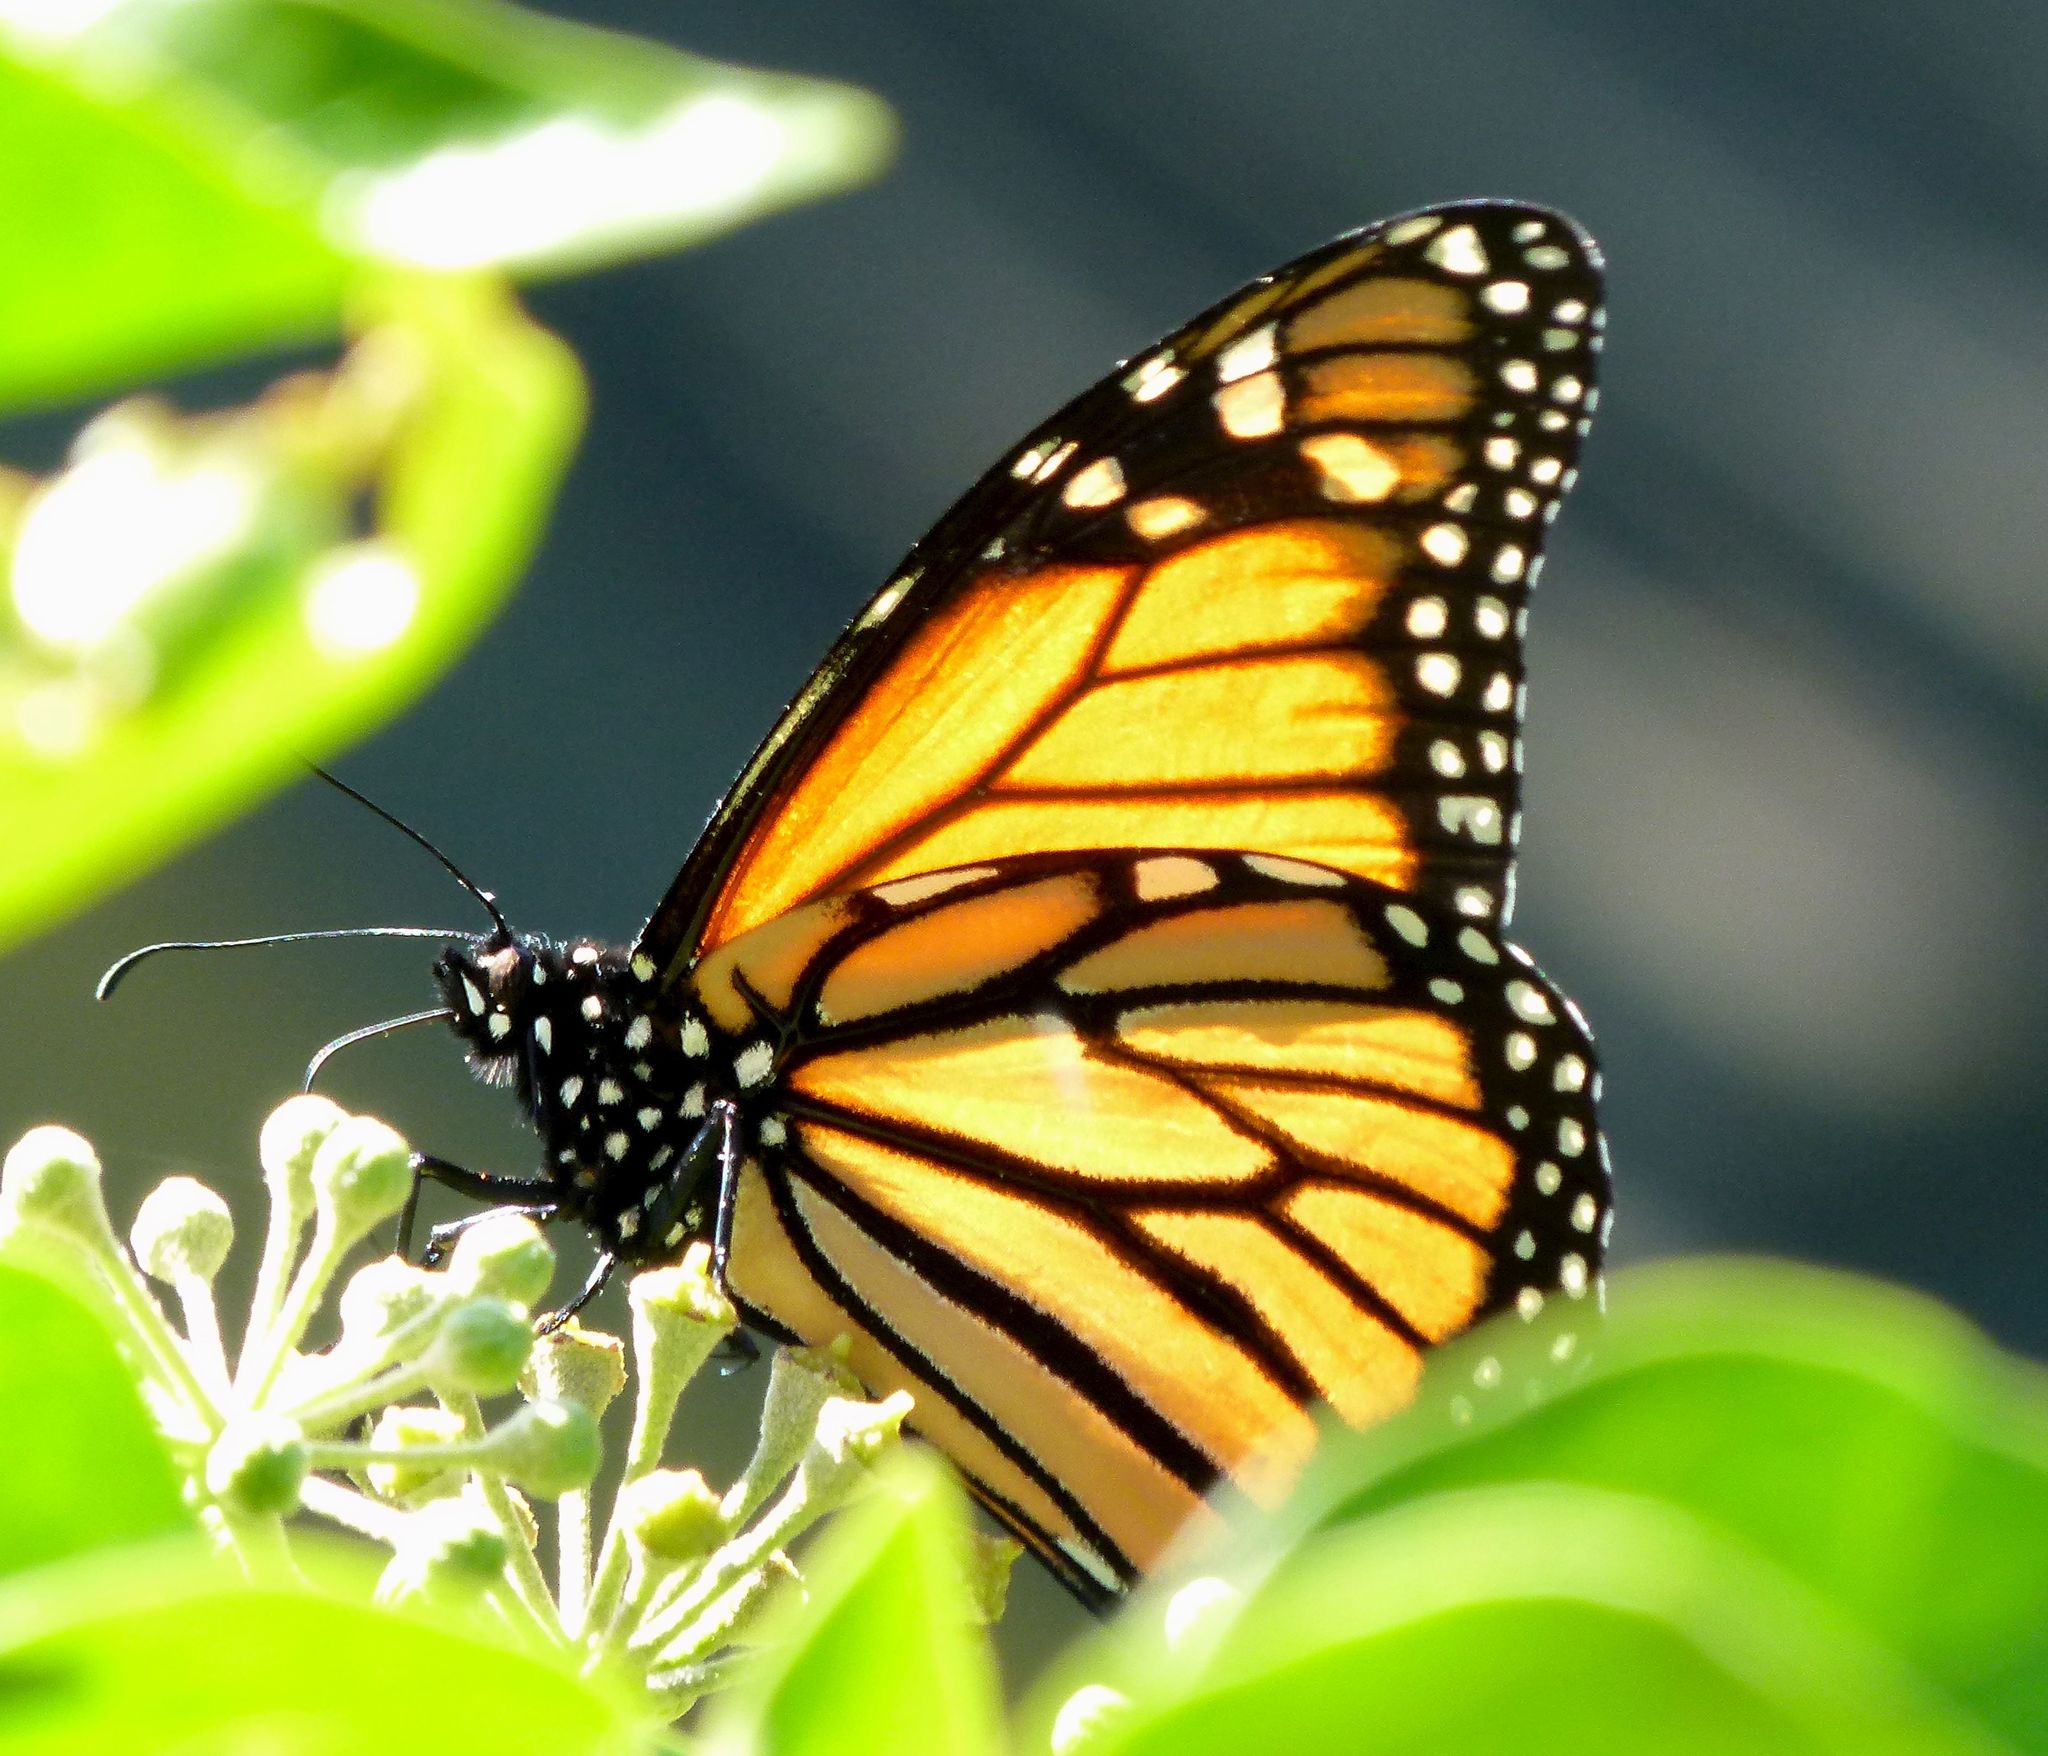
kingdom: Animalia
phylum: Arthropoda
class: Insecta
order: Lepidoptera
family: Nymphalidae
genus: Danaus
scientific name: Danaus plexippus
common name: Monarch
